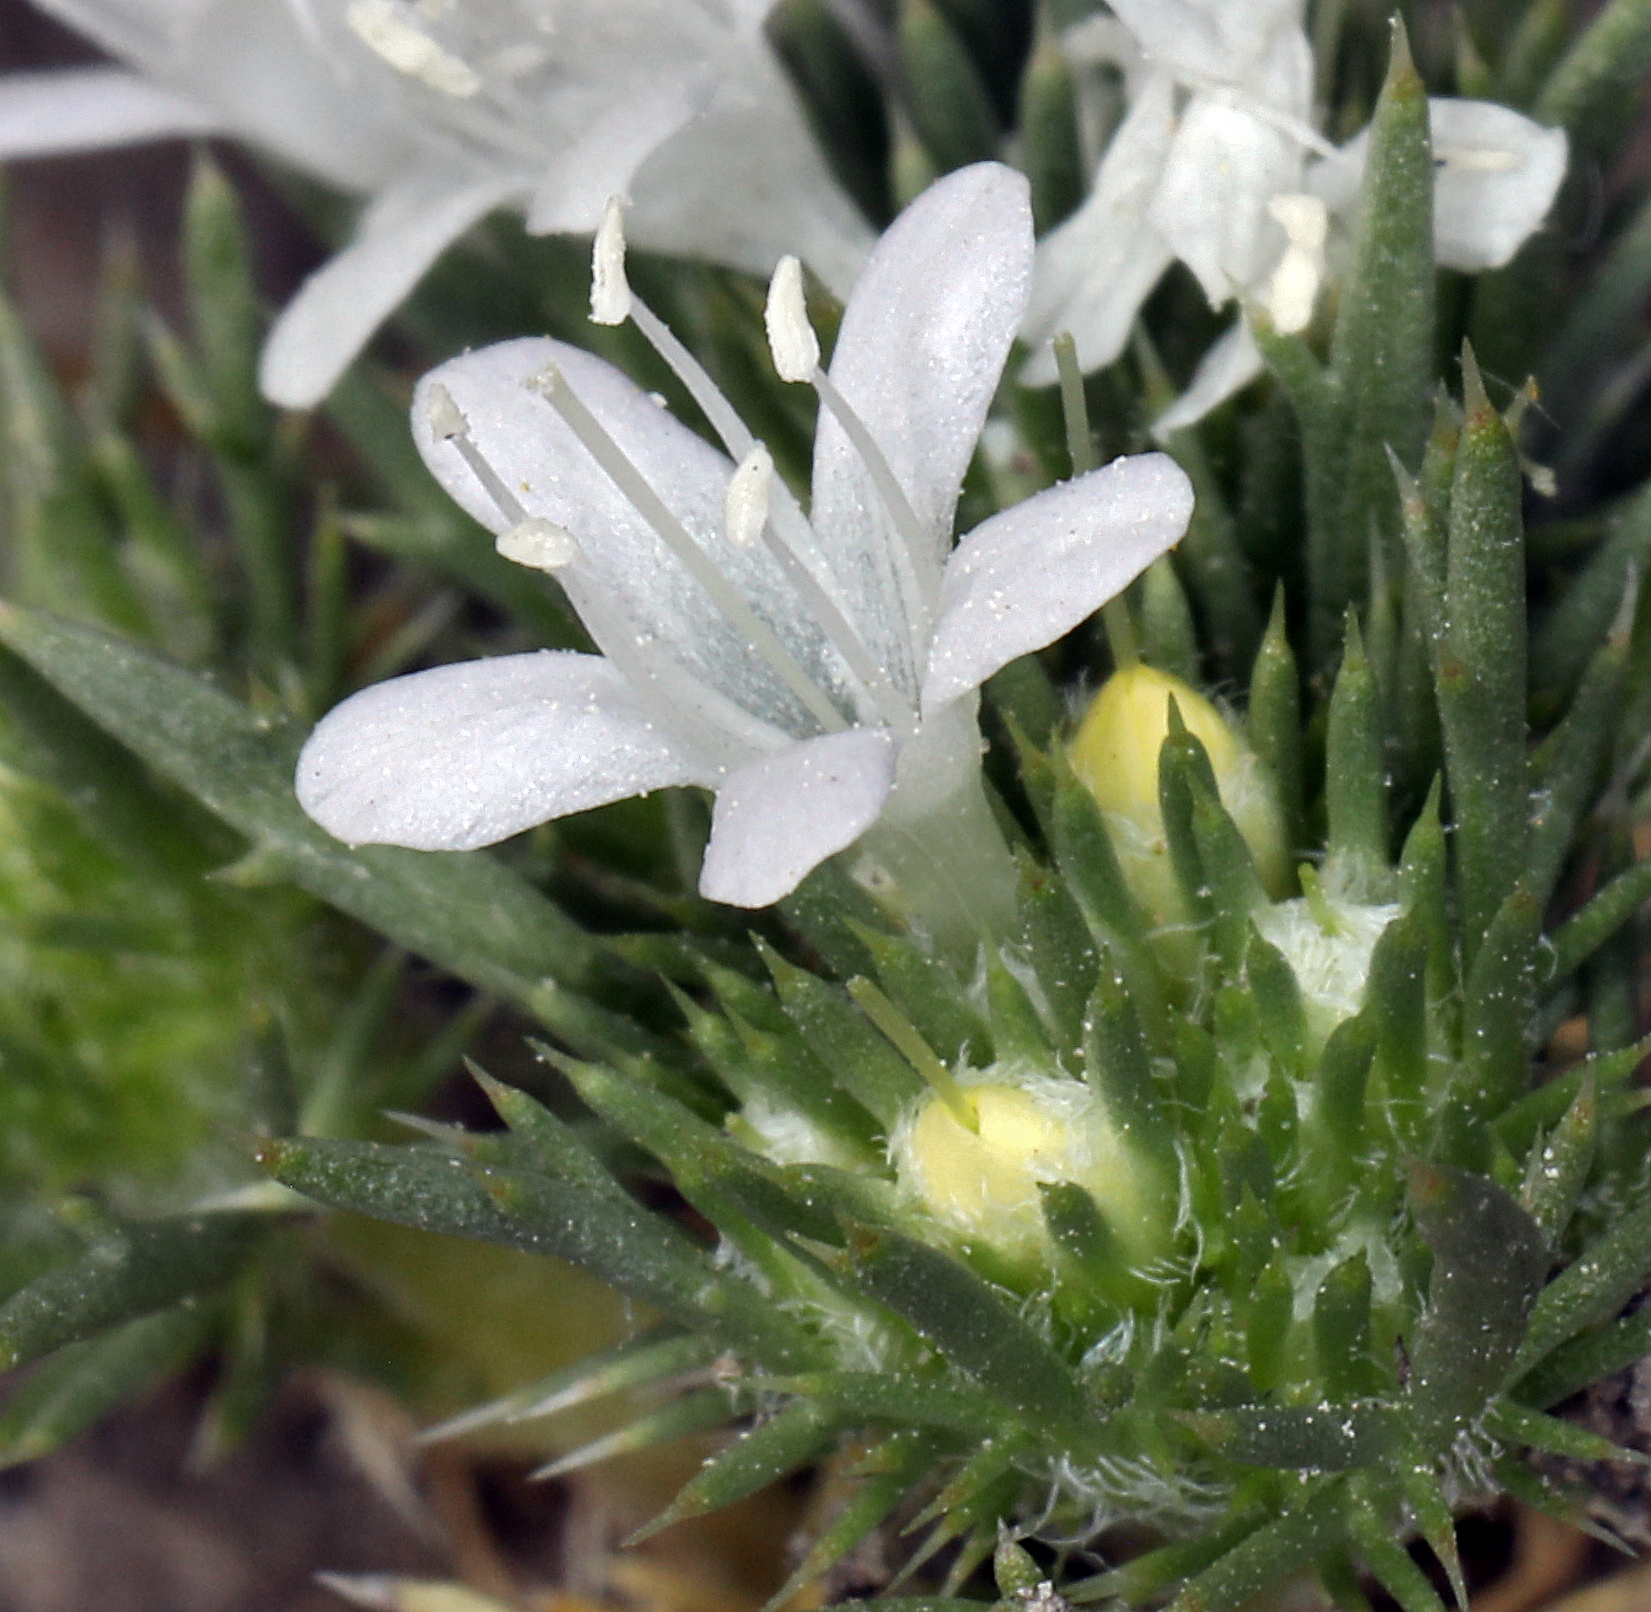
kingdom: Plantae
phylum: Tracheophyta
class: Magnoliopsida
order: Ericales
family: Polemoniaceae
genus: Navarretia
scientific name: Navarretia leucocephala
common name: White-flowered navarretia
